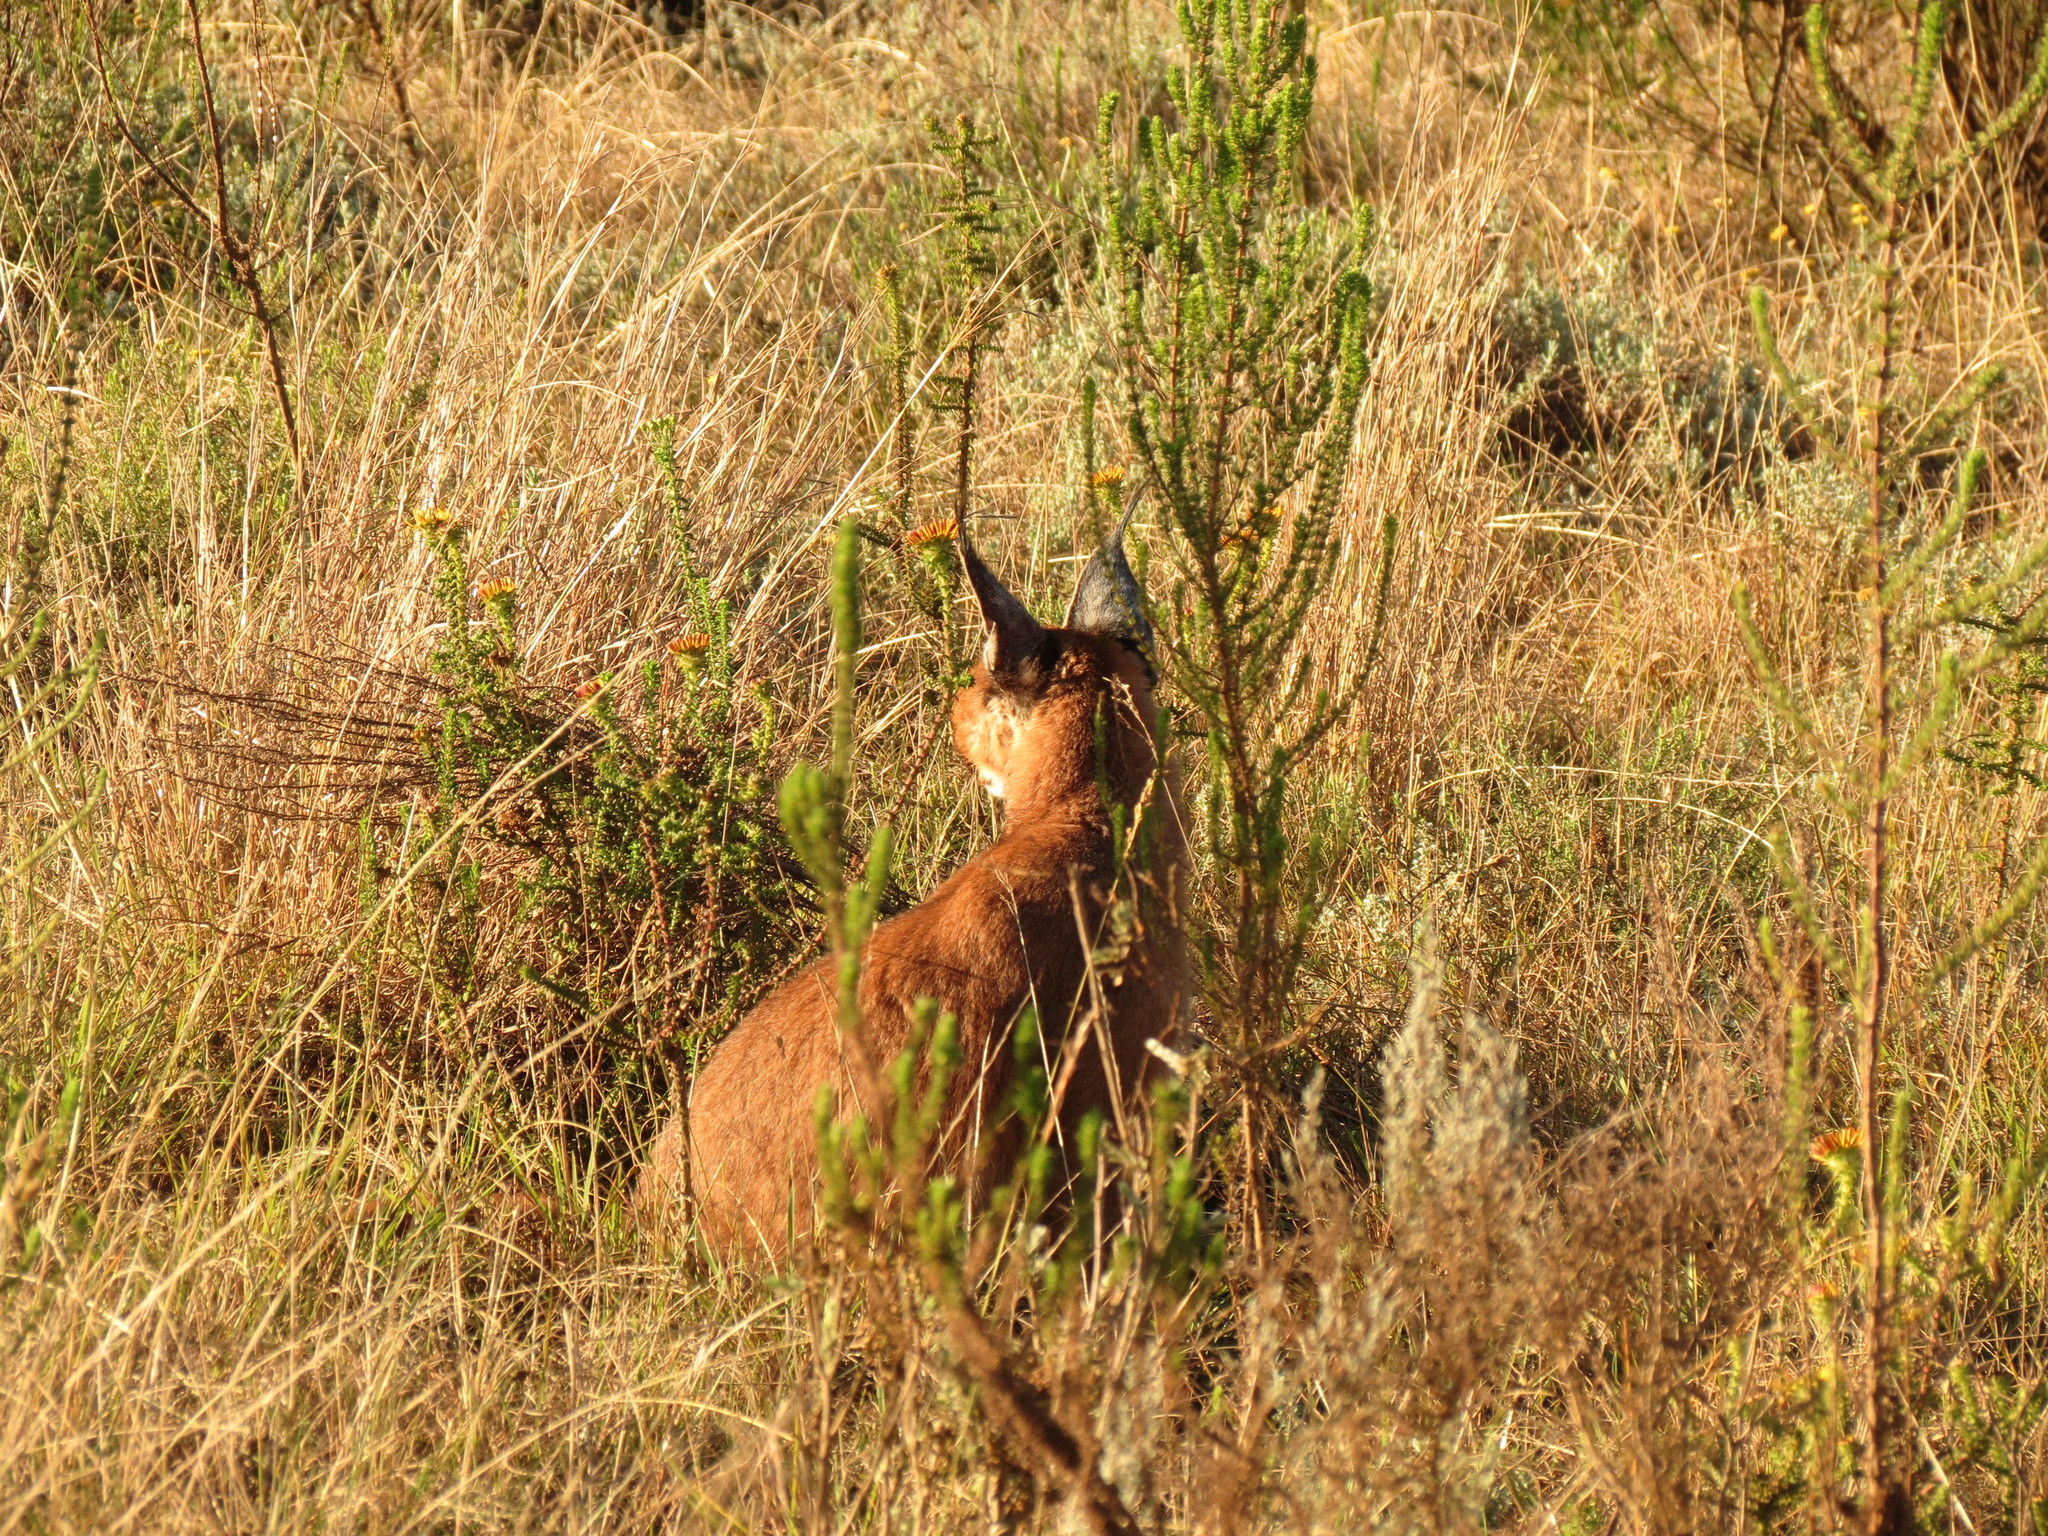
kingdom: Animalia
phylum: Chordata
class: Mammalia
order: Carnivora
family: Felidae
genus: Caracal
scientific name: Caracal caracal
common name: Caracal
